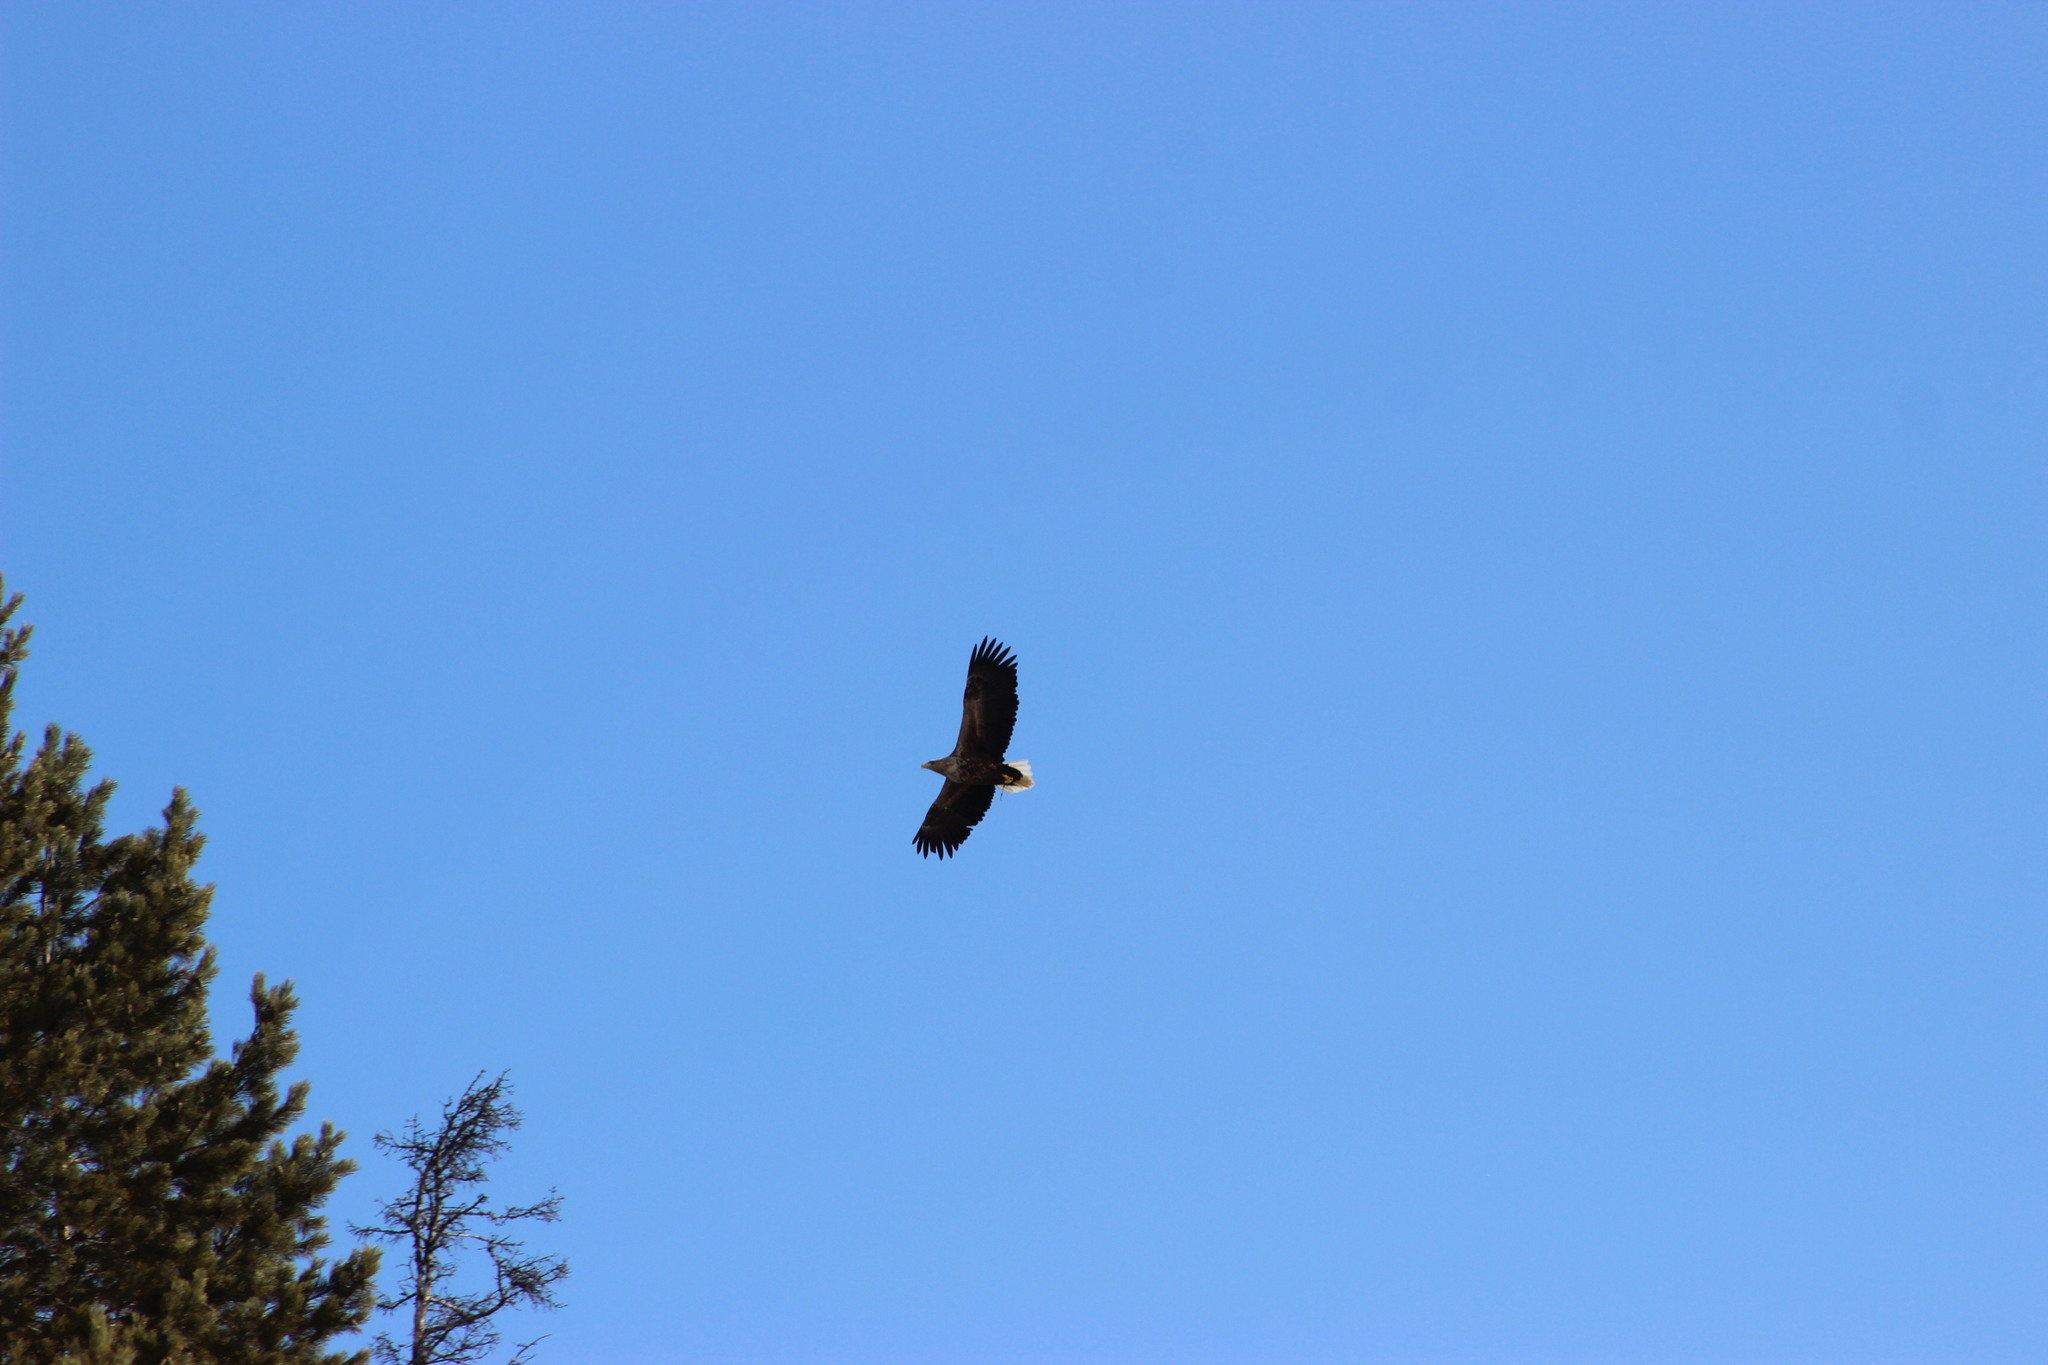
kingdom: Animalia
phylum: Chordata
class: Aves
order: Accipitriformes
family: Accipitridae
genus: Haliaeetus
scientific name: Haliaeetus albicilla
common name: White-tailed eagle
